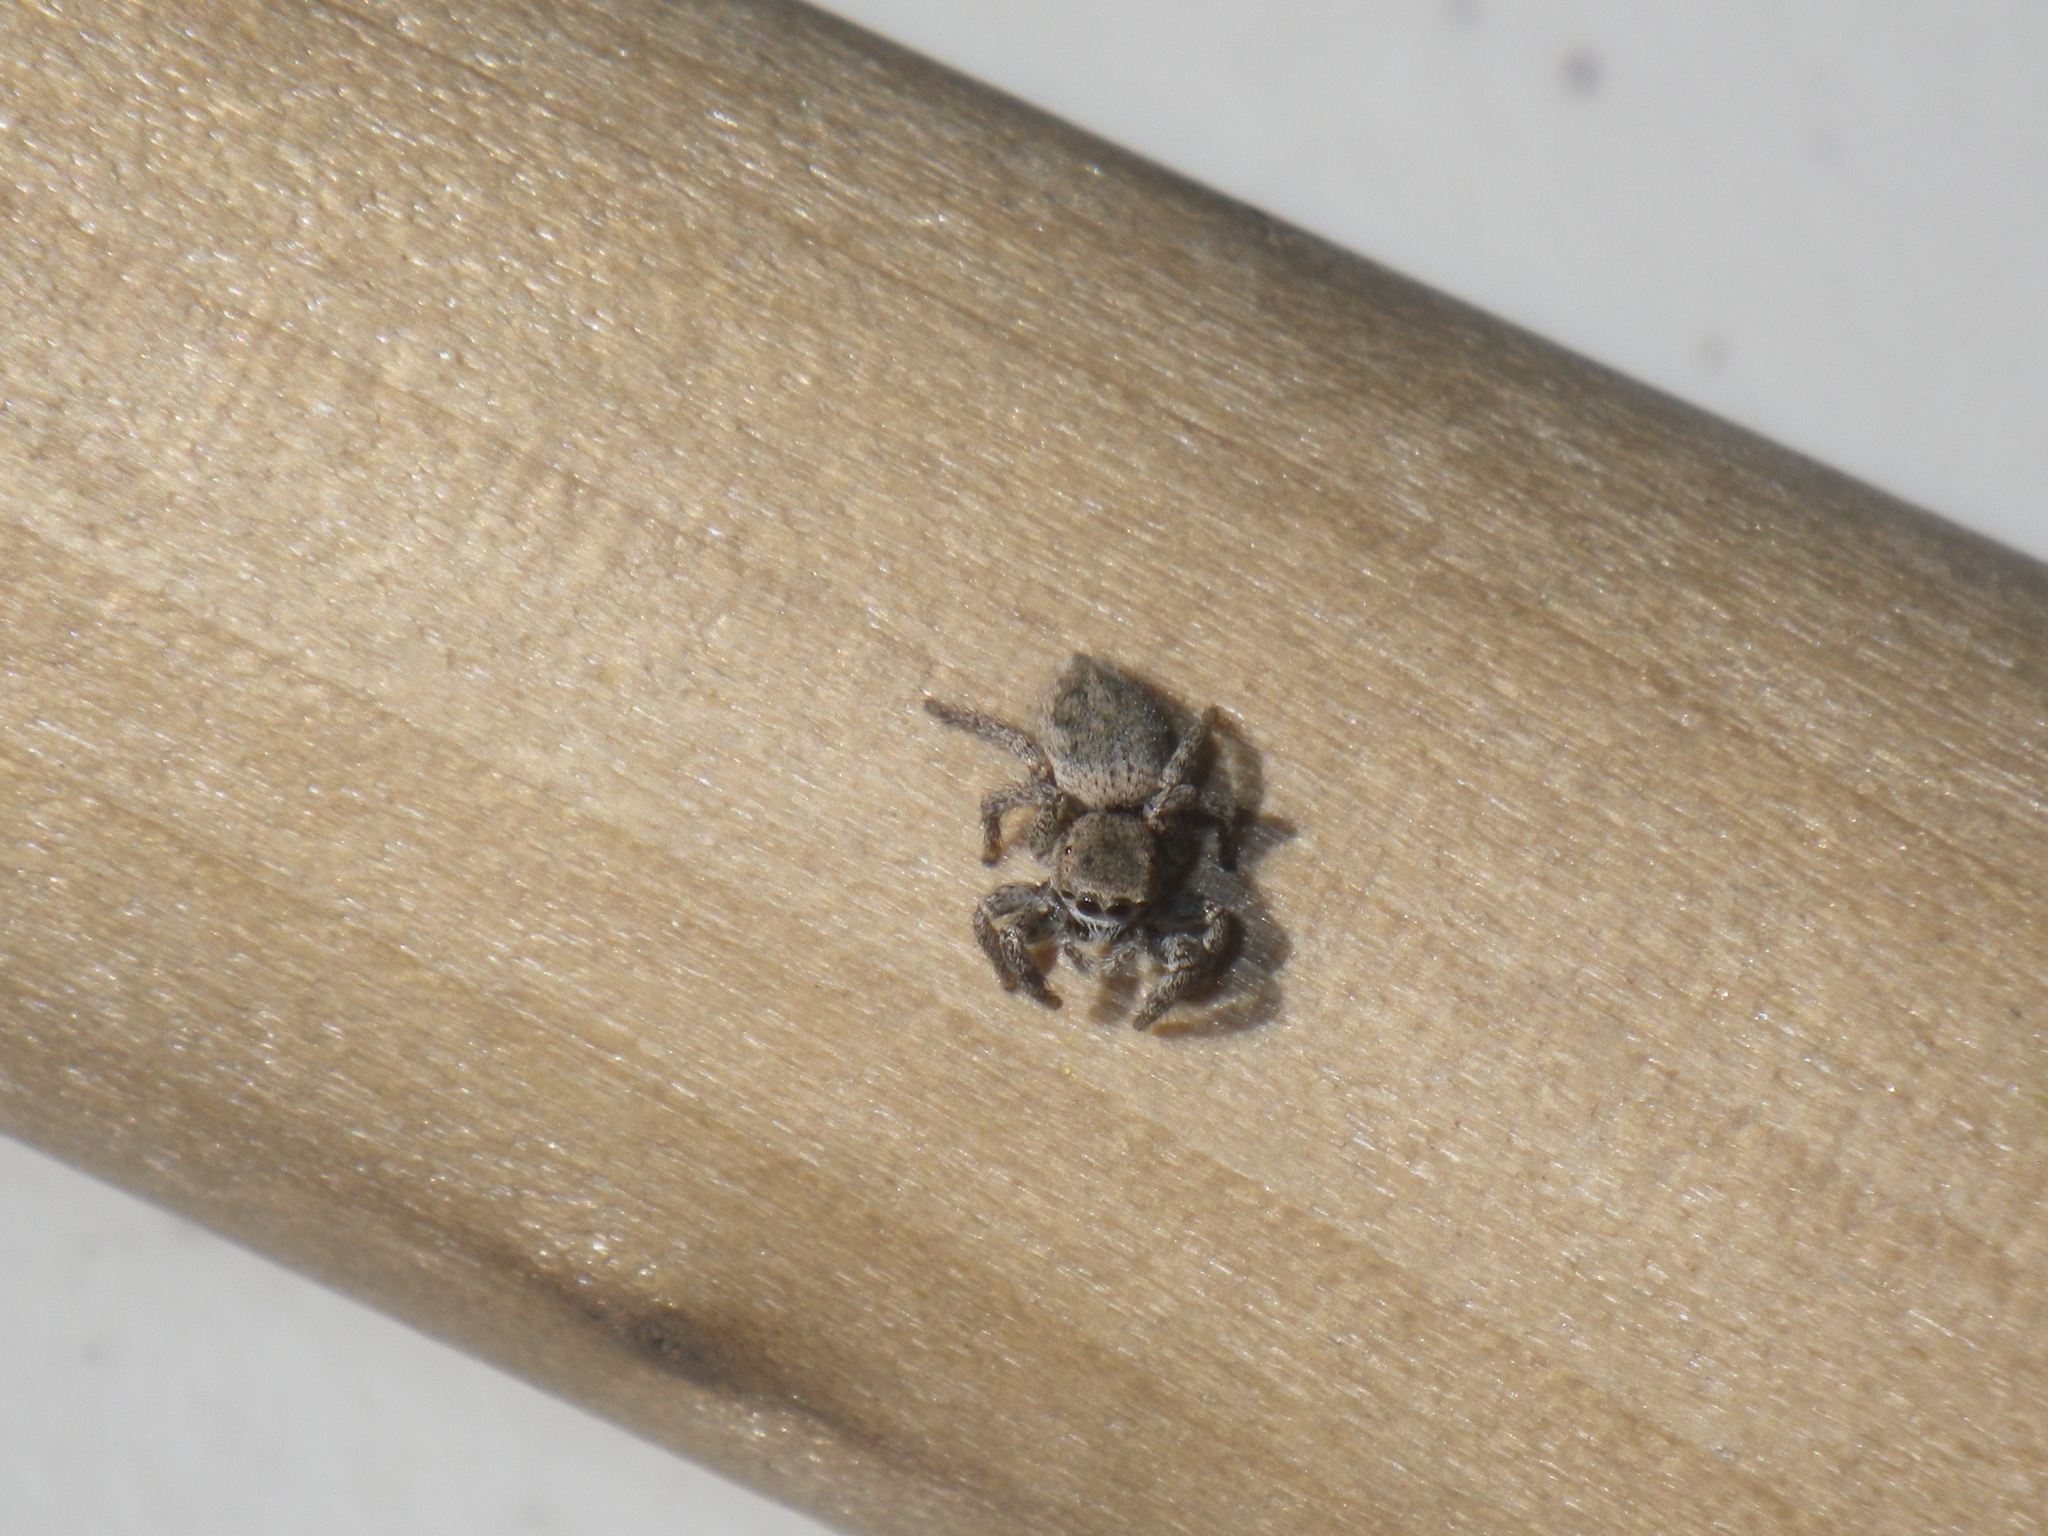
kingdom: Animalia
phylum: Arthropoda
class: Arachnida
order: Araneae
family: Salticidae
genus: Habronattus
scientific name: Habronattus formosus
